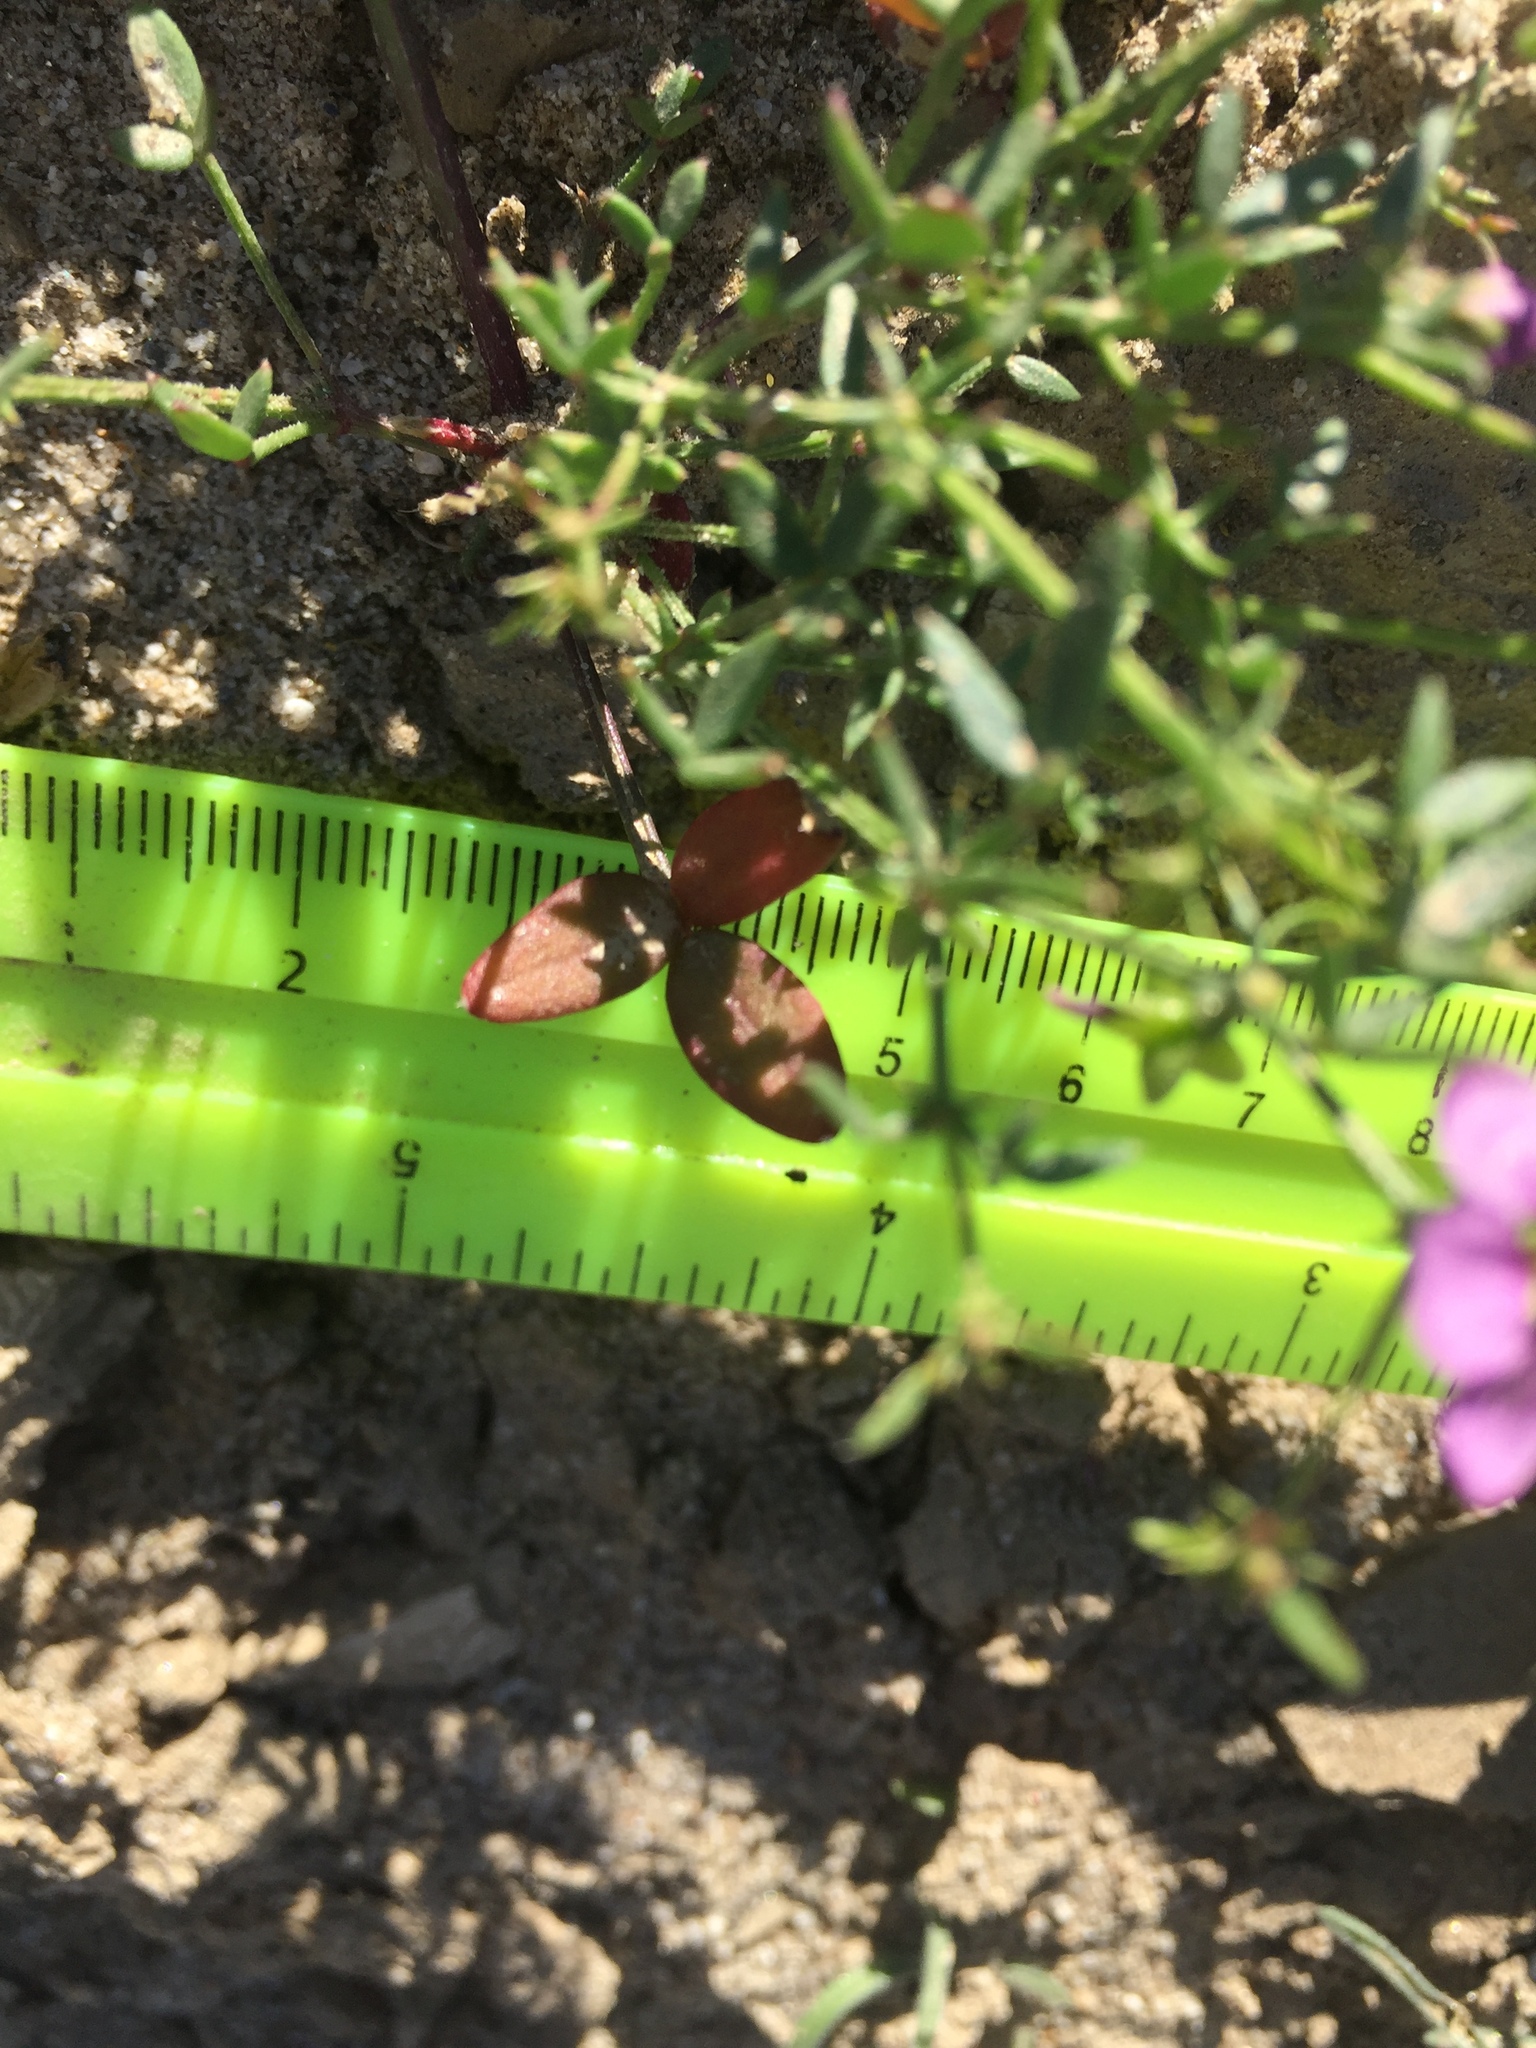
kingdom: Plantae
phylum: Tracheophyta
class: Magnoliopsida
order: Zygophyllales
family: Zygophyllaceae
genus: Fagonia
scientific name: Fagonia laevis
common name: California fagonbush
